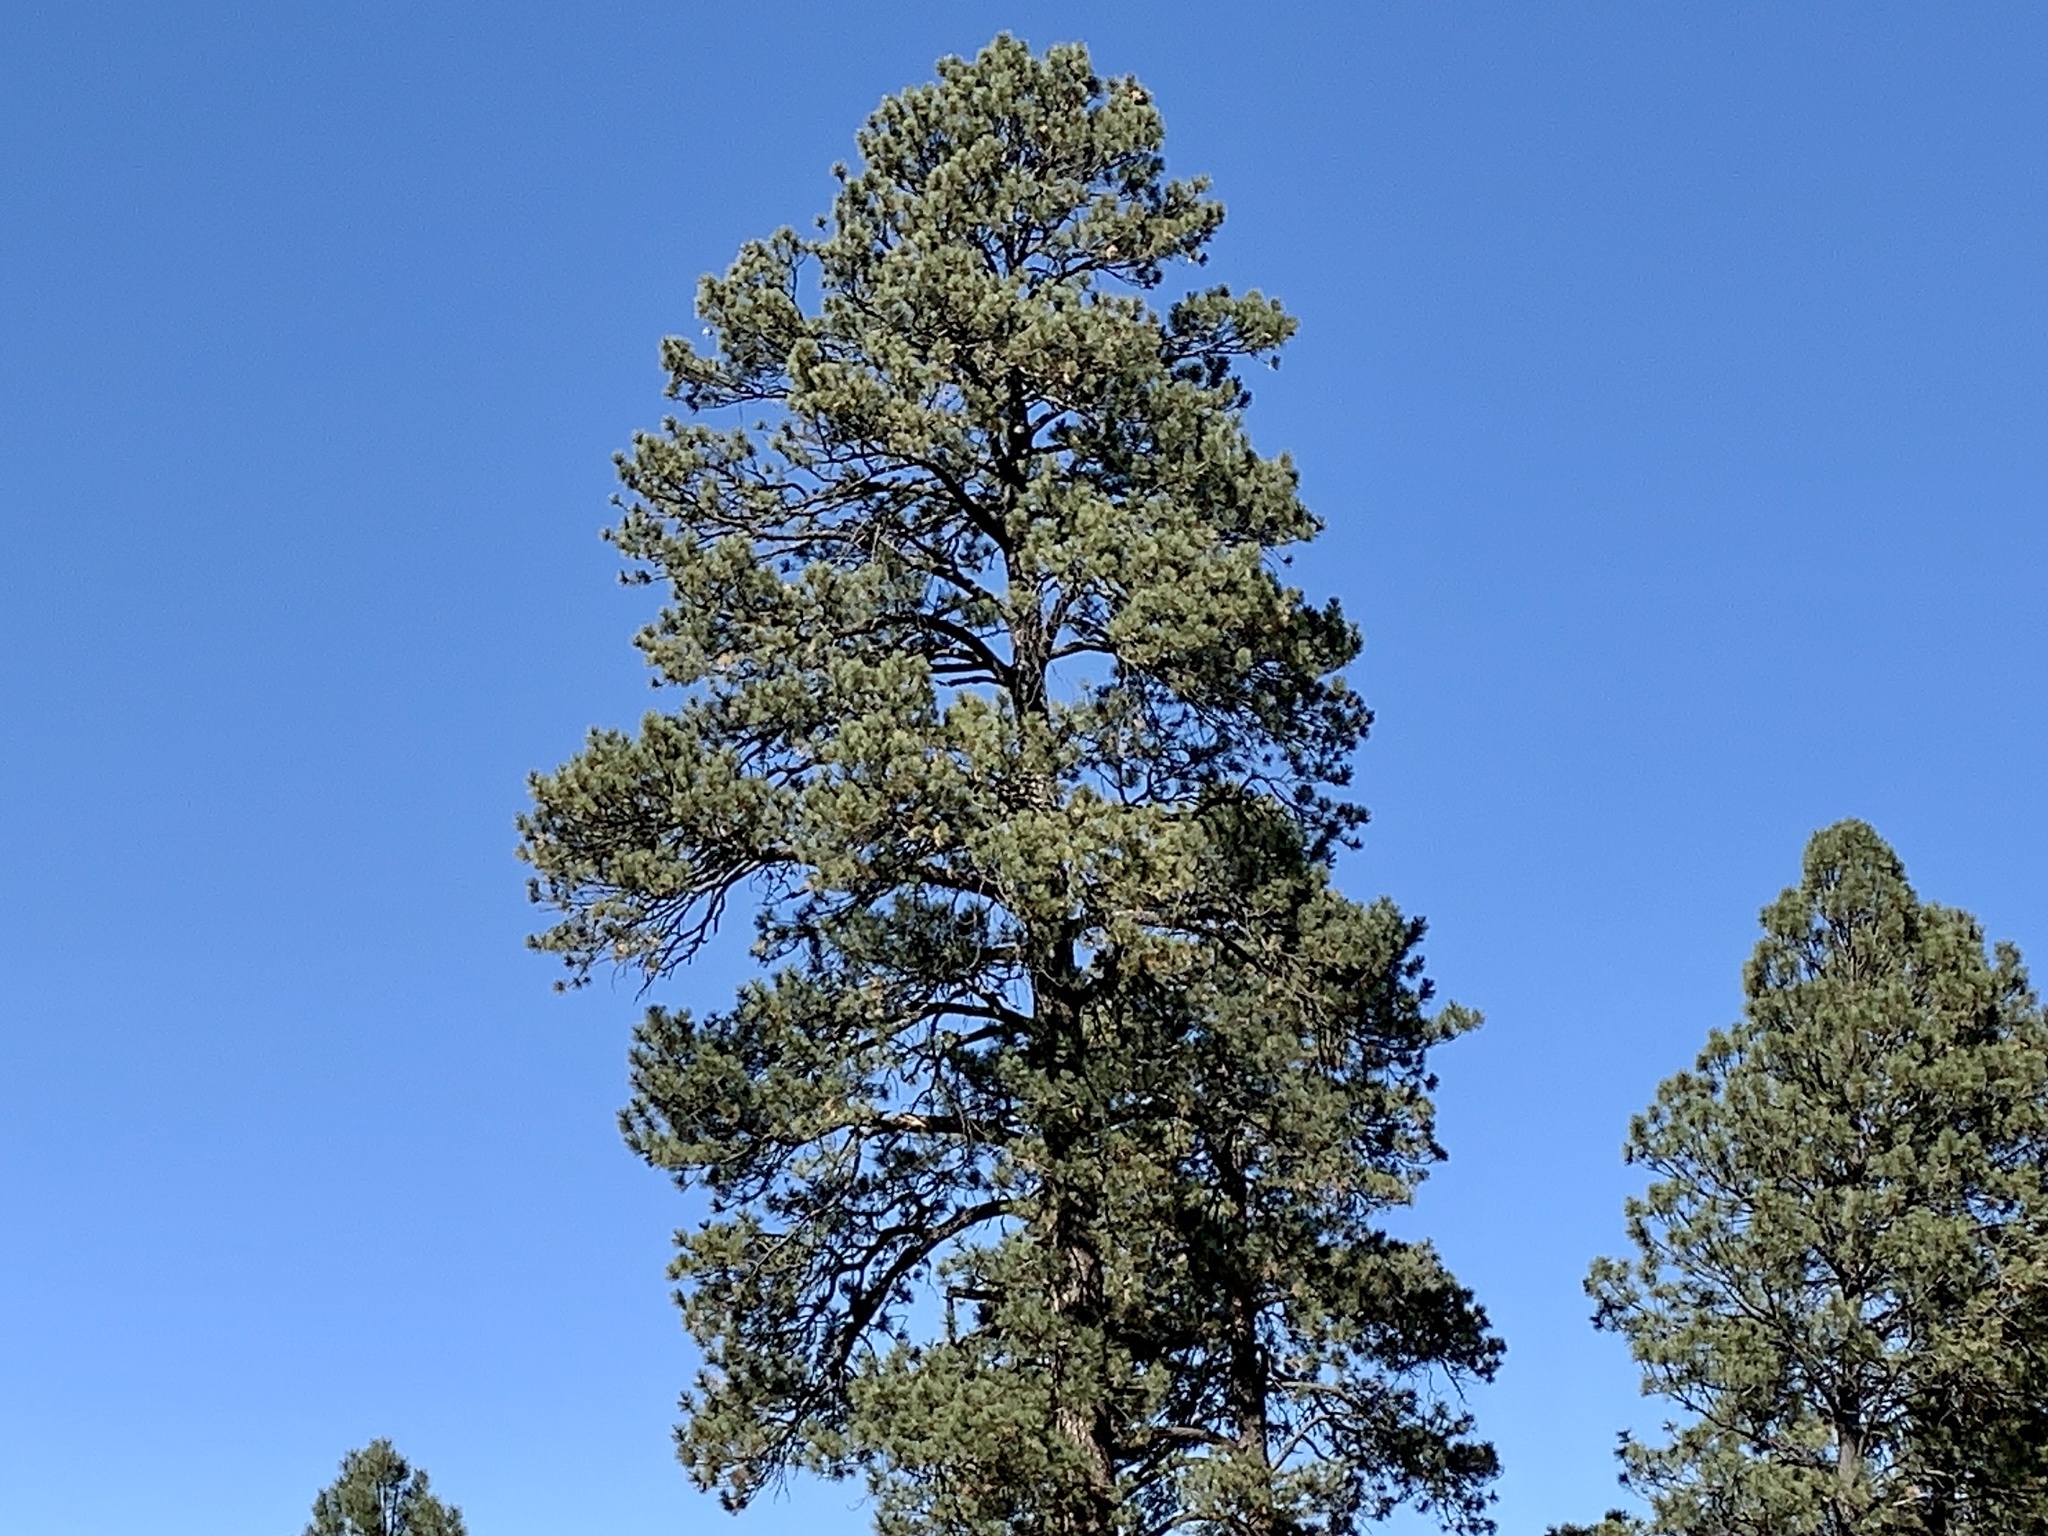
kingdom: Plantae
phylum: Tracheophyta
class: Pinopsida
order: Pinales
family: Pinaceae
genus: Pinus
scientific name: Pinus ponderosa
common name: Western yellow-pine
